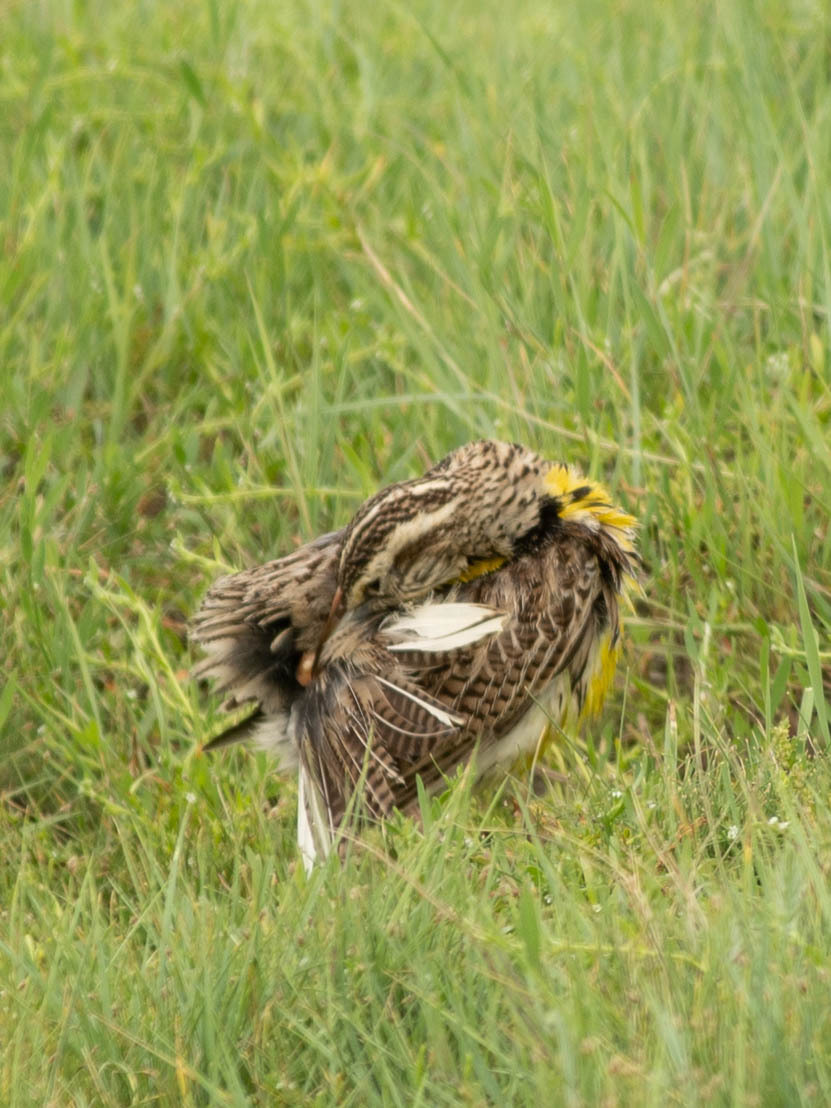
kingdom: Animalia
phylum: Chordata
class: Aves
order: Passeriformes
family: Icteridae
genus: Sturnella
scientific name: Sturnella neglecta
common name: Western meadowlark
